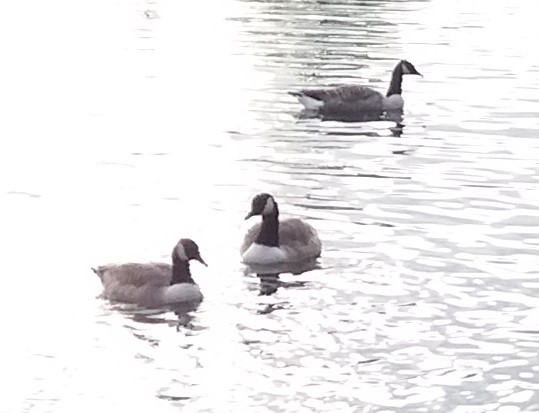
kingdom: Animalia
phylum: Chordata
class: Aves
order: Anseriformes
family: Anatidae
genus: Branta
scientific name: Branta canadensis
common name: Canada goose
